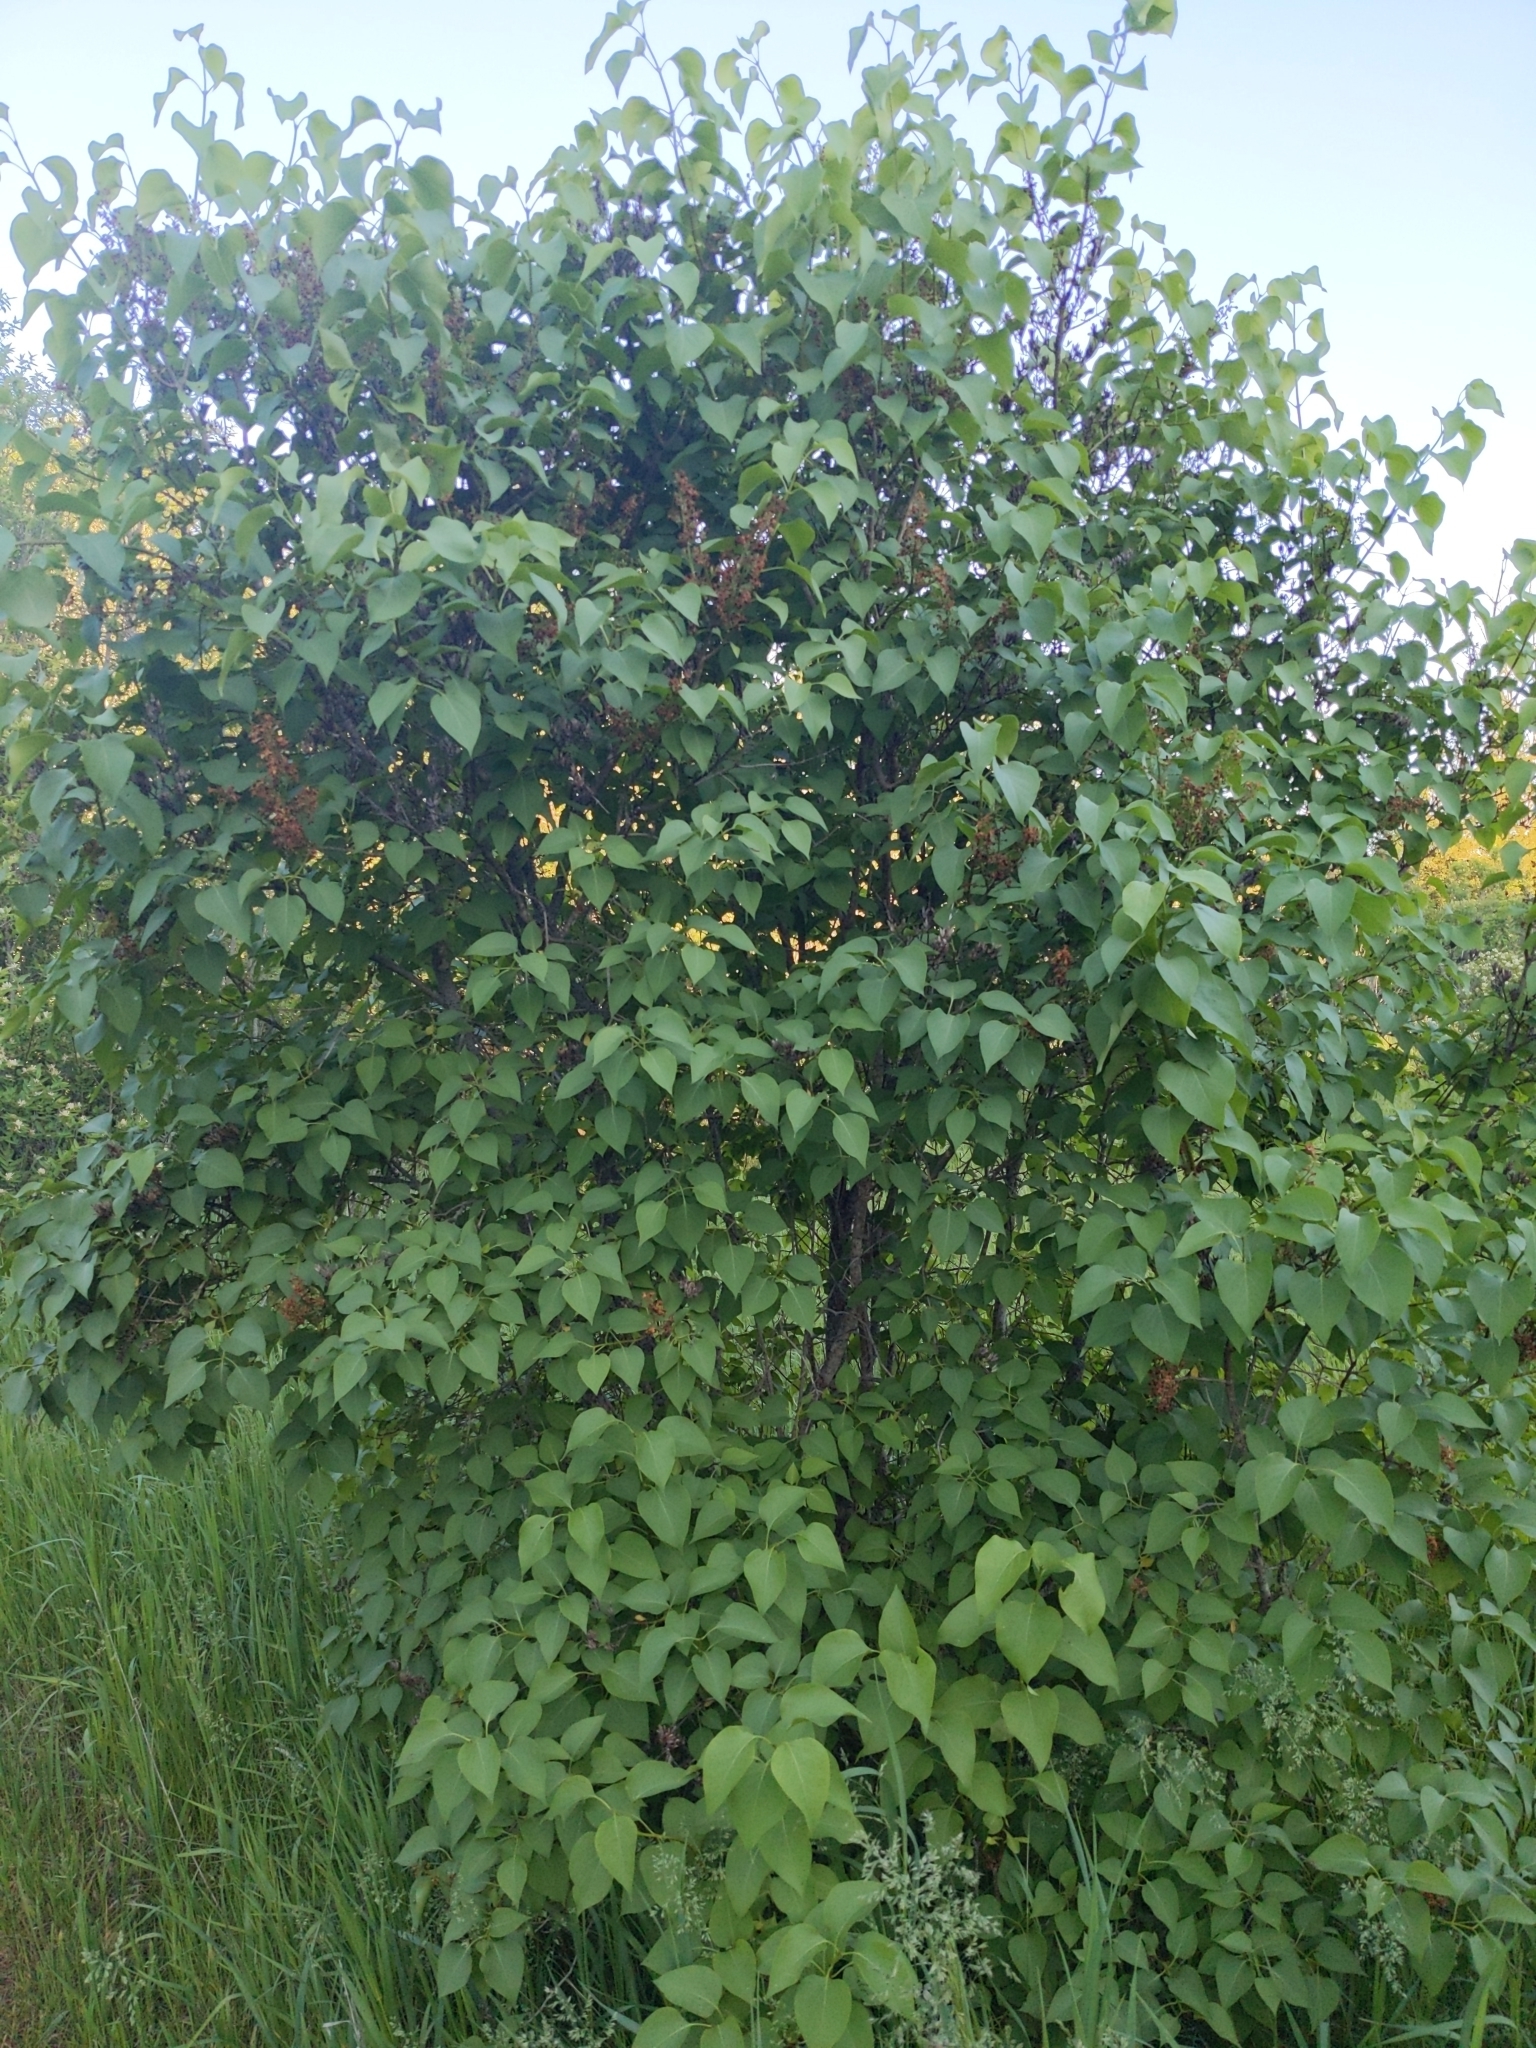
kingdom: Plantae
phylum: Tracheophyta
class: Magnoliopsida
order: Lamiales
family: Oleaceae
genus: Syringa
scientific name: Syringa vulgaris
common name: Common lilac
